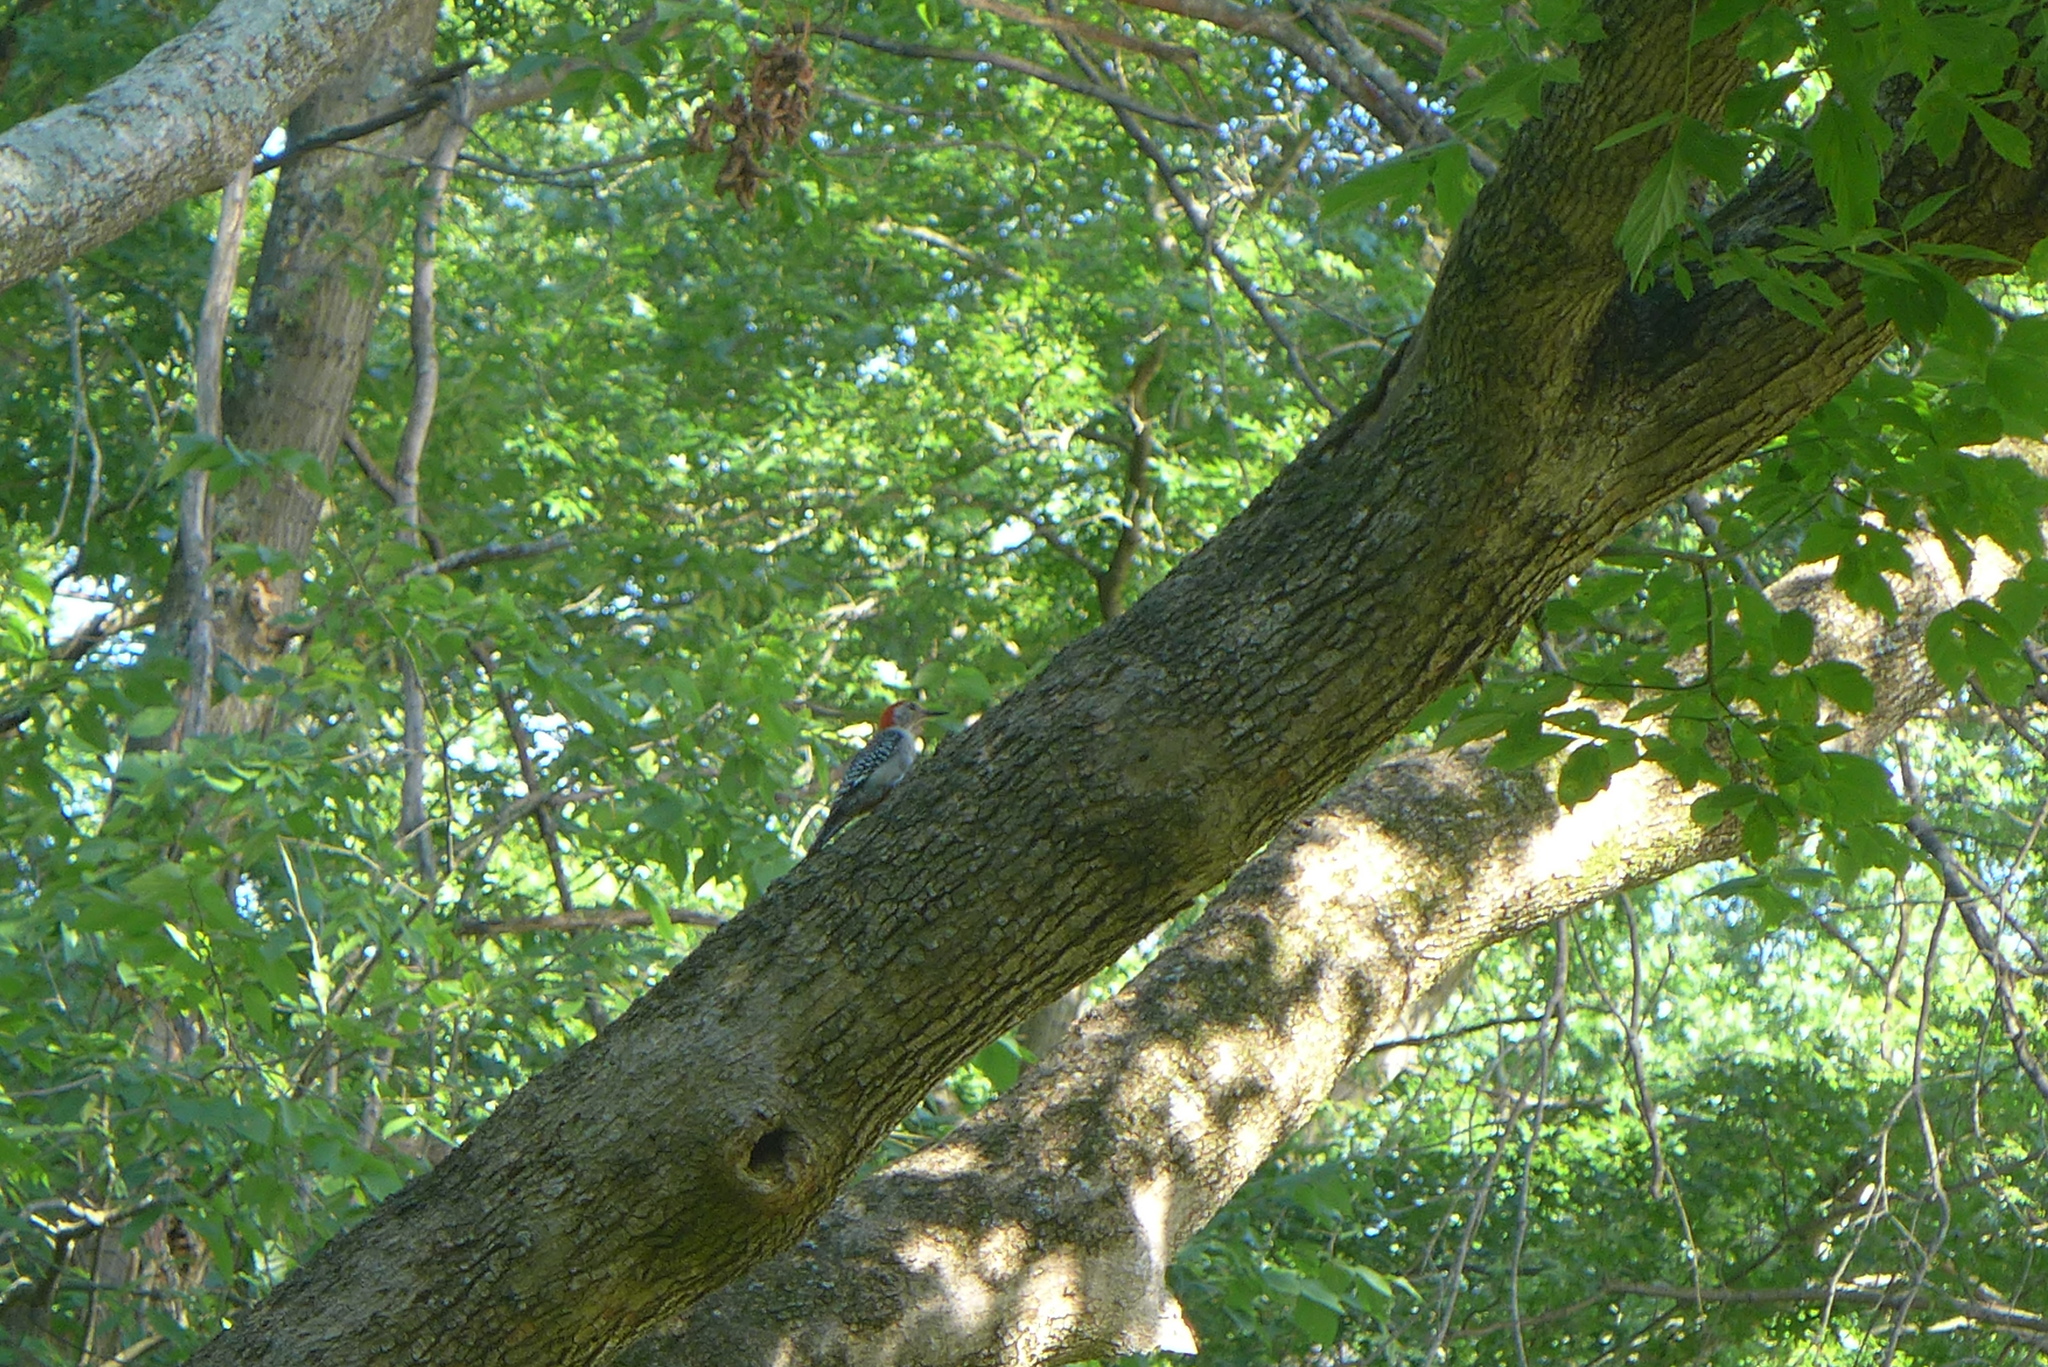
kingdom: Animalia
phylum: Chordata
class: Aves
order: Piciformes
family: Picidae
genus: Melanerpes
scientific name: Melanerpes carolinus
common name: Red-bellied woodpecker
